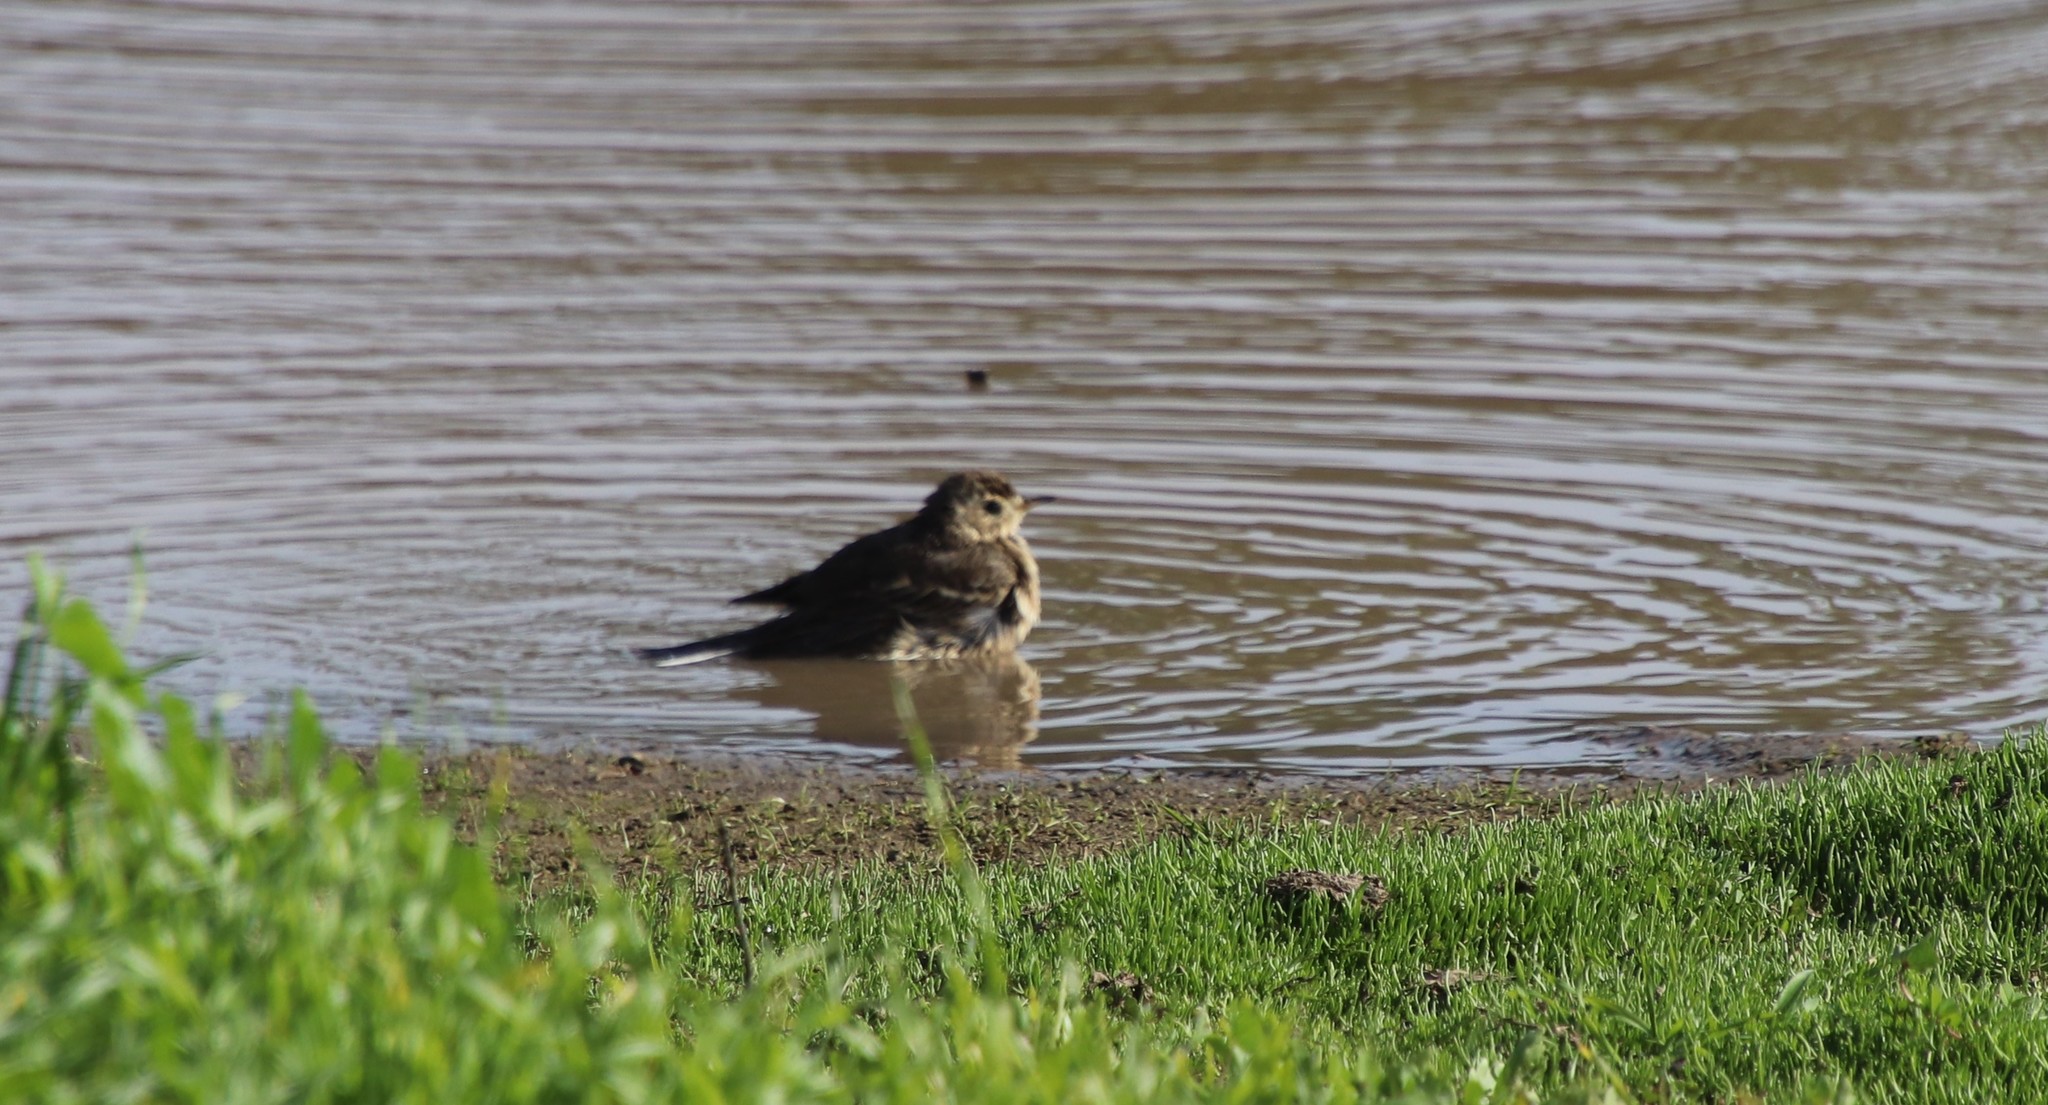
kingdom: Animalia
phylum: Chordata
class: Aves
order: Passeriformes
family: Motacillidae
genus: Anthus
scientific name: Anthus rubescens
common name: Buff-bellied pipit
